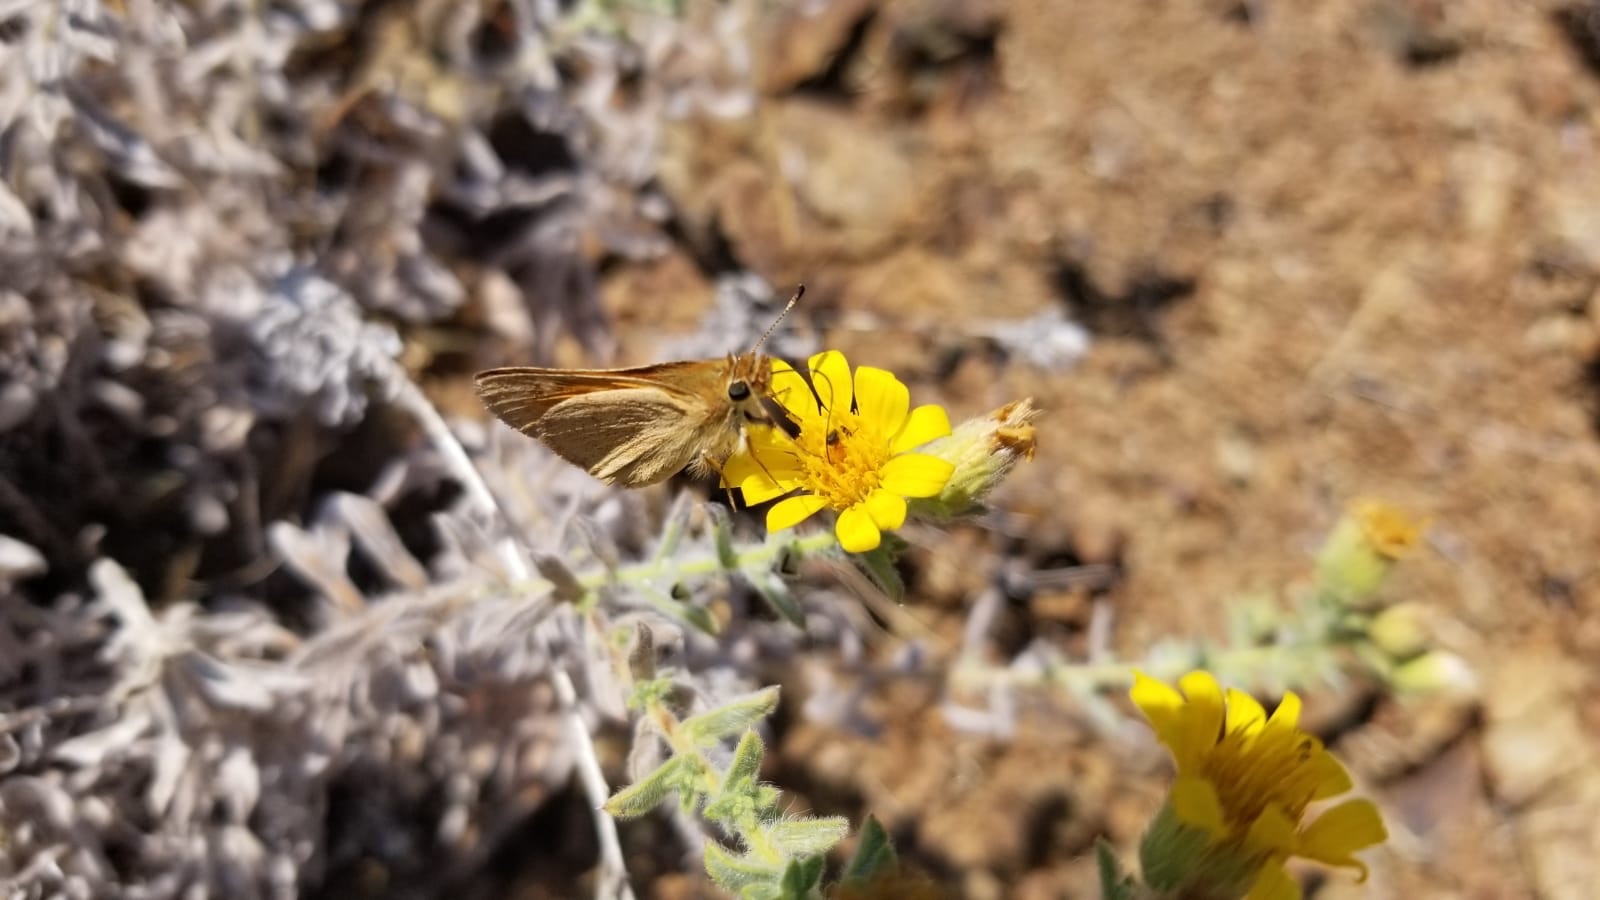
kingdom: Animalia
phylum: Arthropoda
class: Insecta
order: Lepidoptera
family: Hesperiidae
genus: Ochlodes
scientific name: Ochlodes sylvanoides
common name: Woodland skipper
